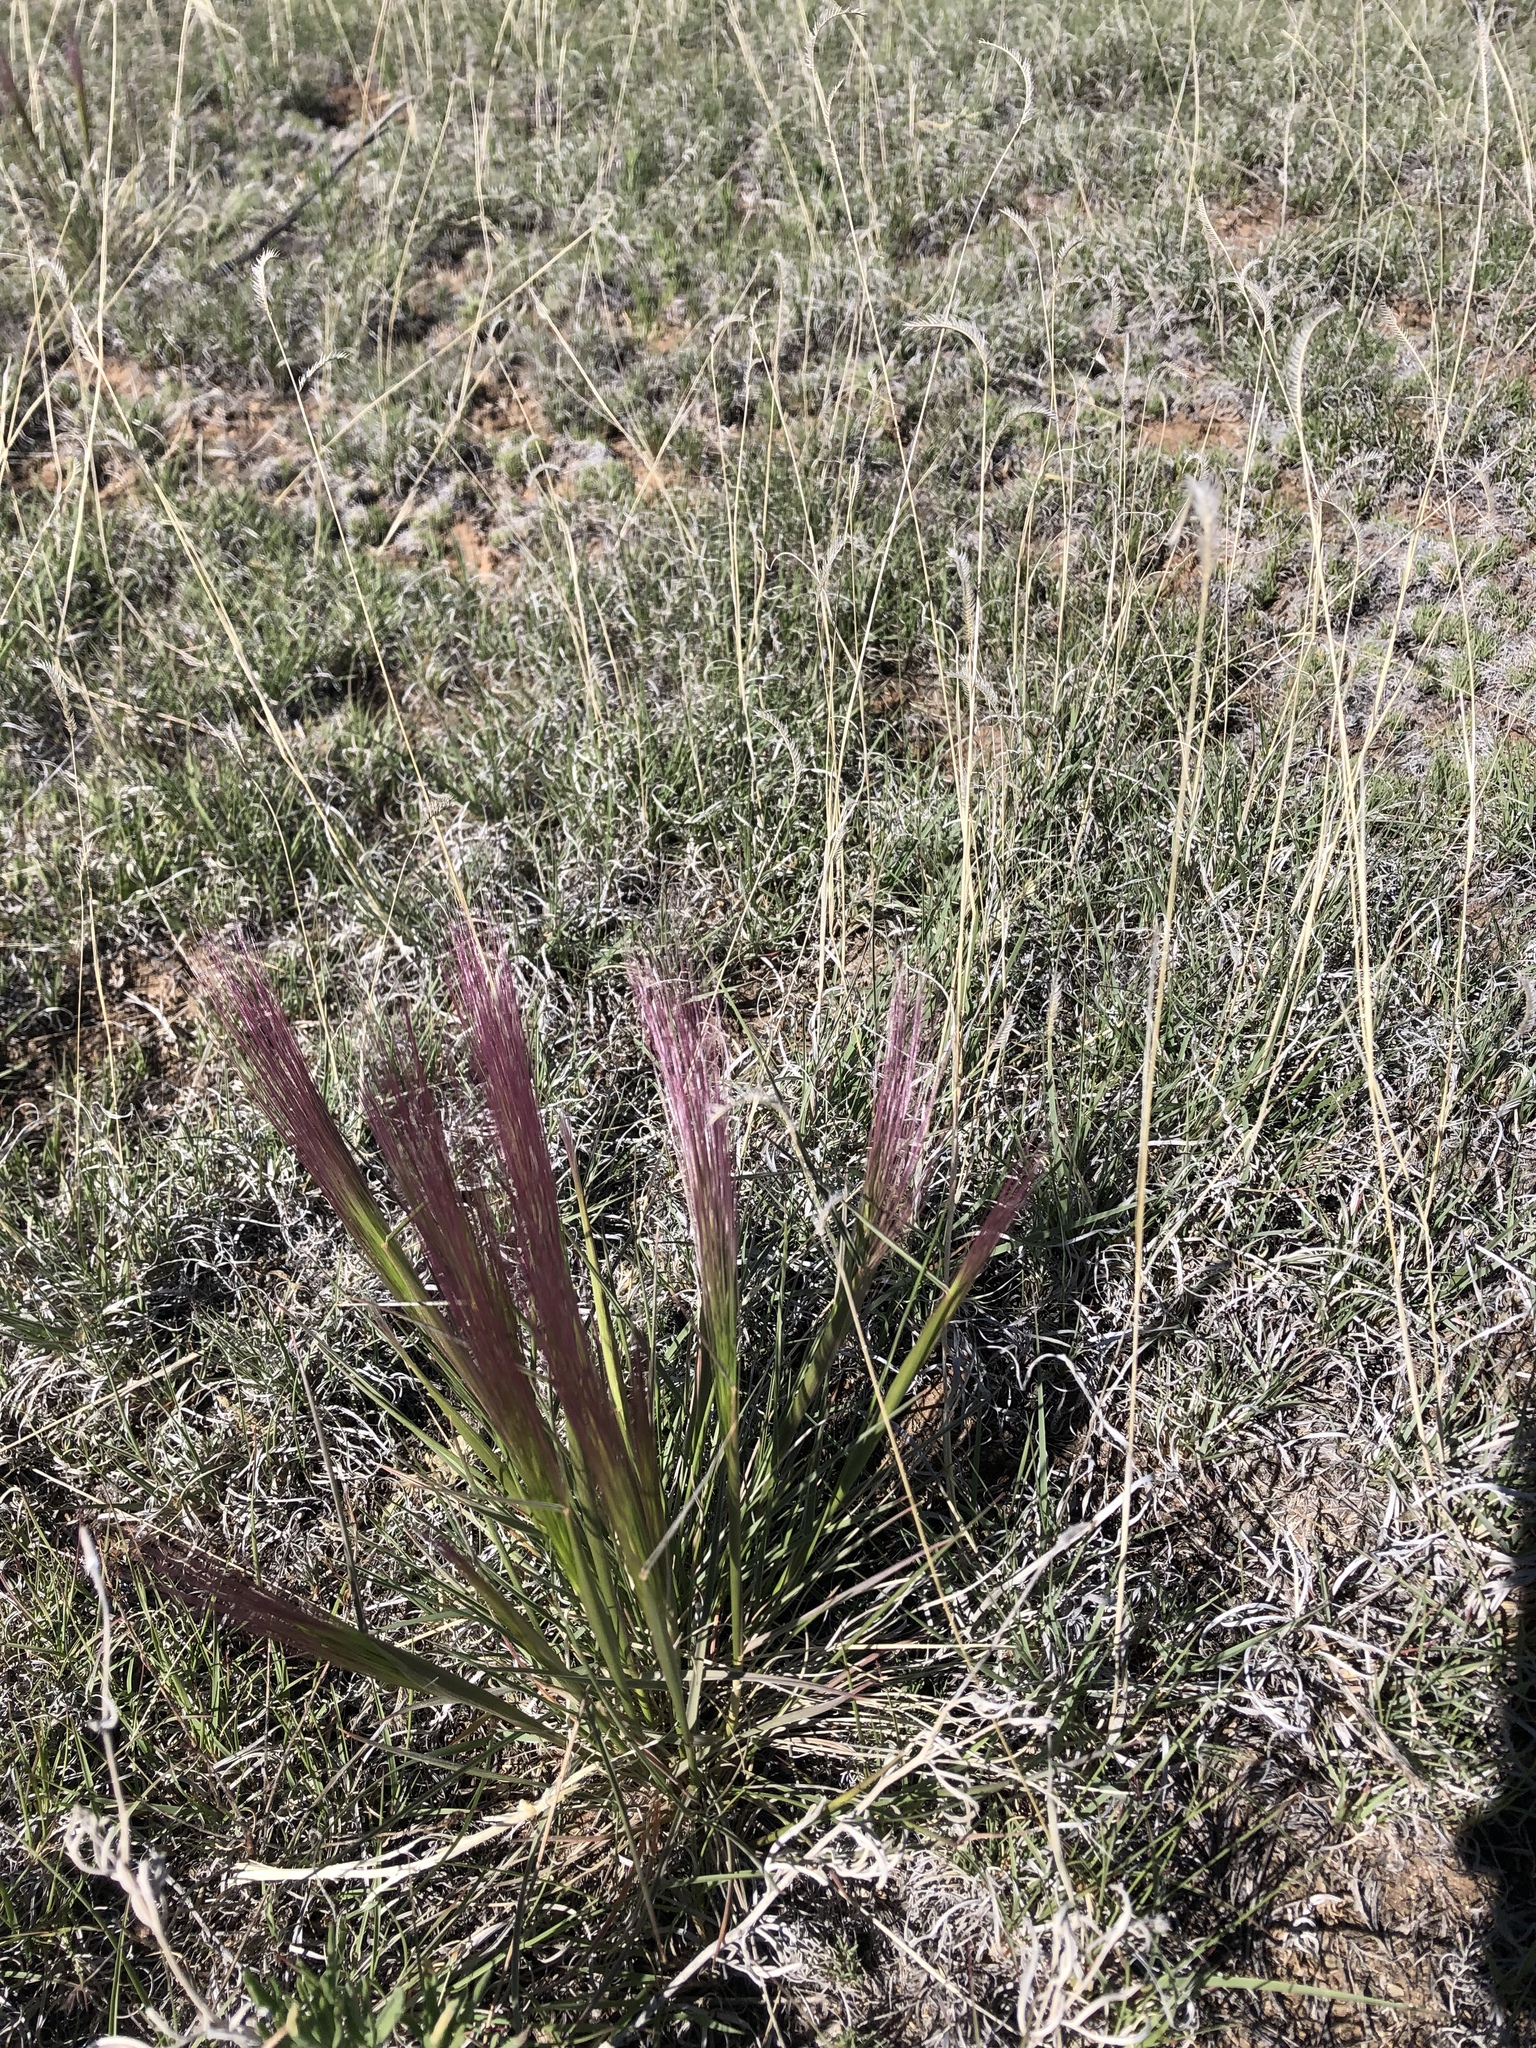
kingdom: Plantae
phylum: Tracheophyta
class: Liliopsida
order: Poales
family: Poaceae
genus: Elymus
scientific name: Elymus elymoides
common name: Bottlebrush squirreltail
